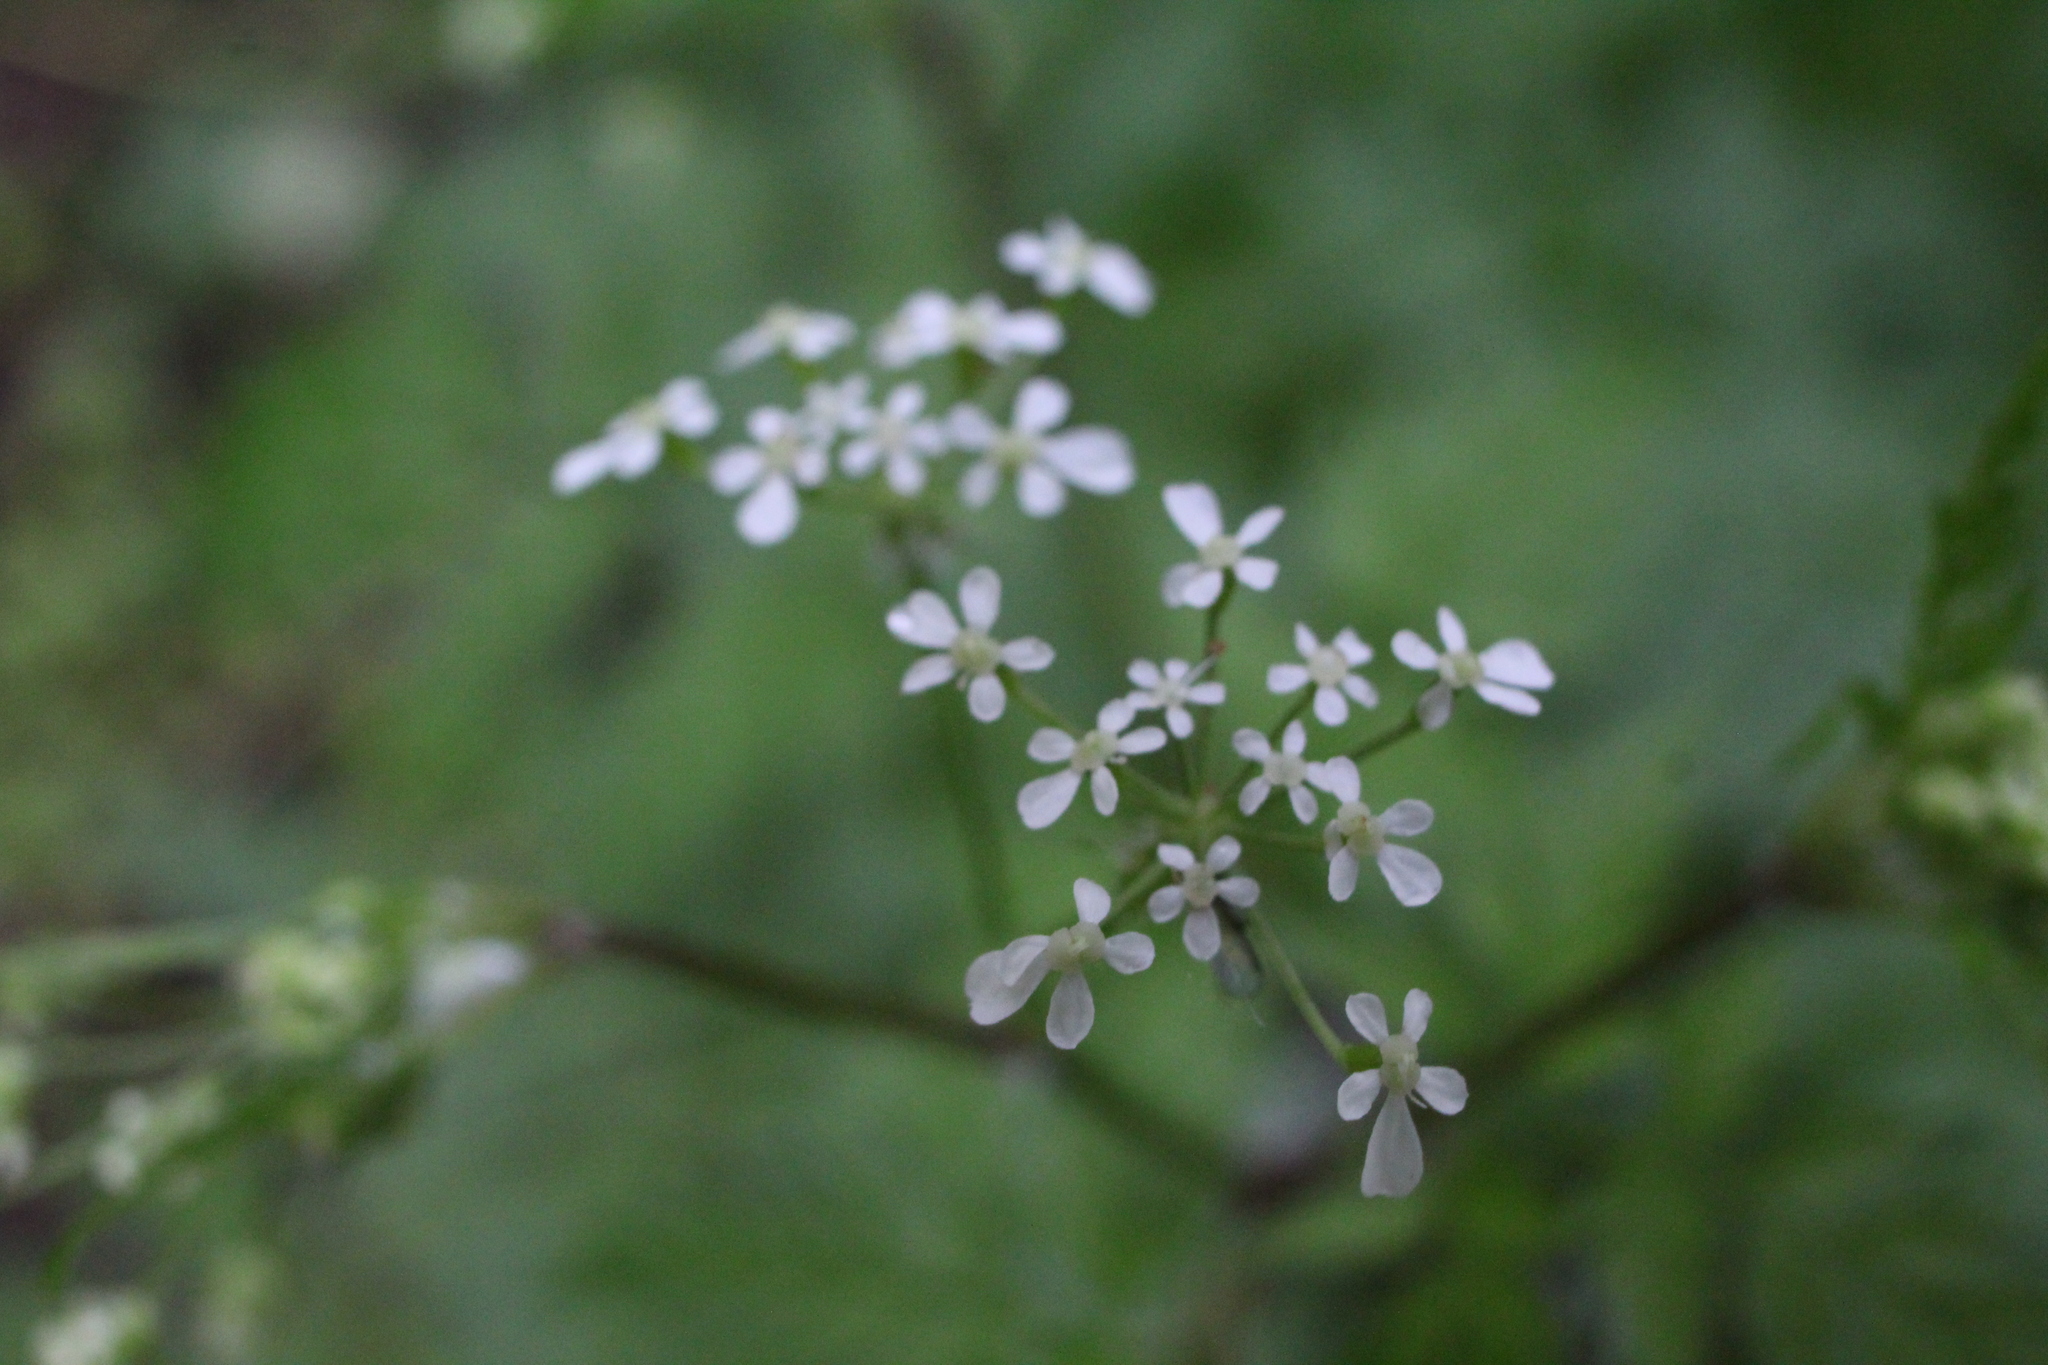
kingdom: Plantae
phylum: Tracheophyta
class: Magnoliopsida
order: Apiales
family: Apiaceae
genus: Anthriscus
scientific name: Anthriscus sylvestris
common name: Cow parsley
